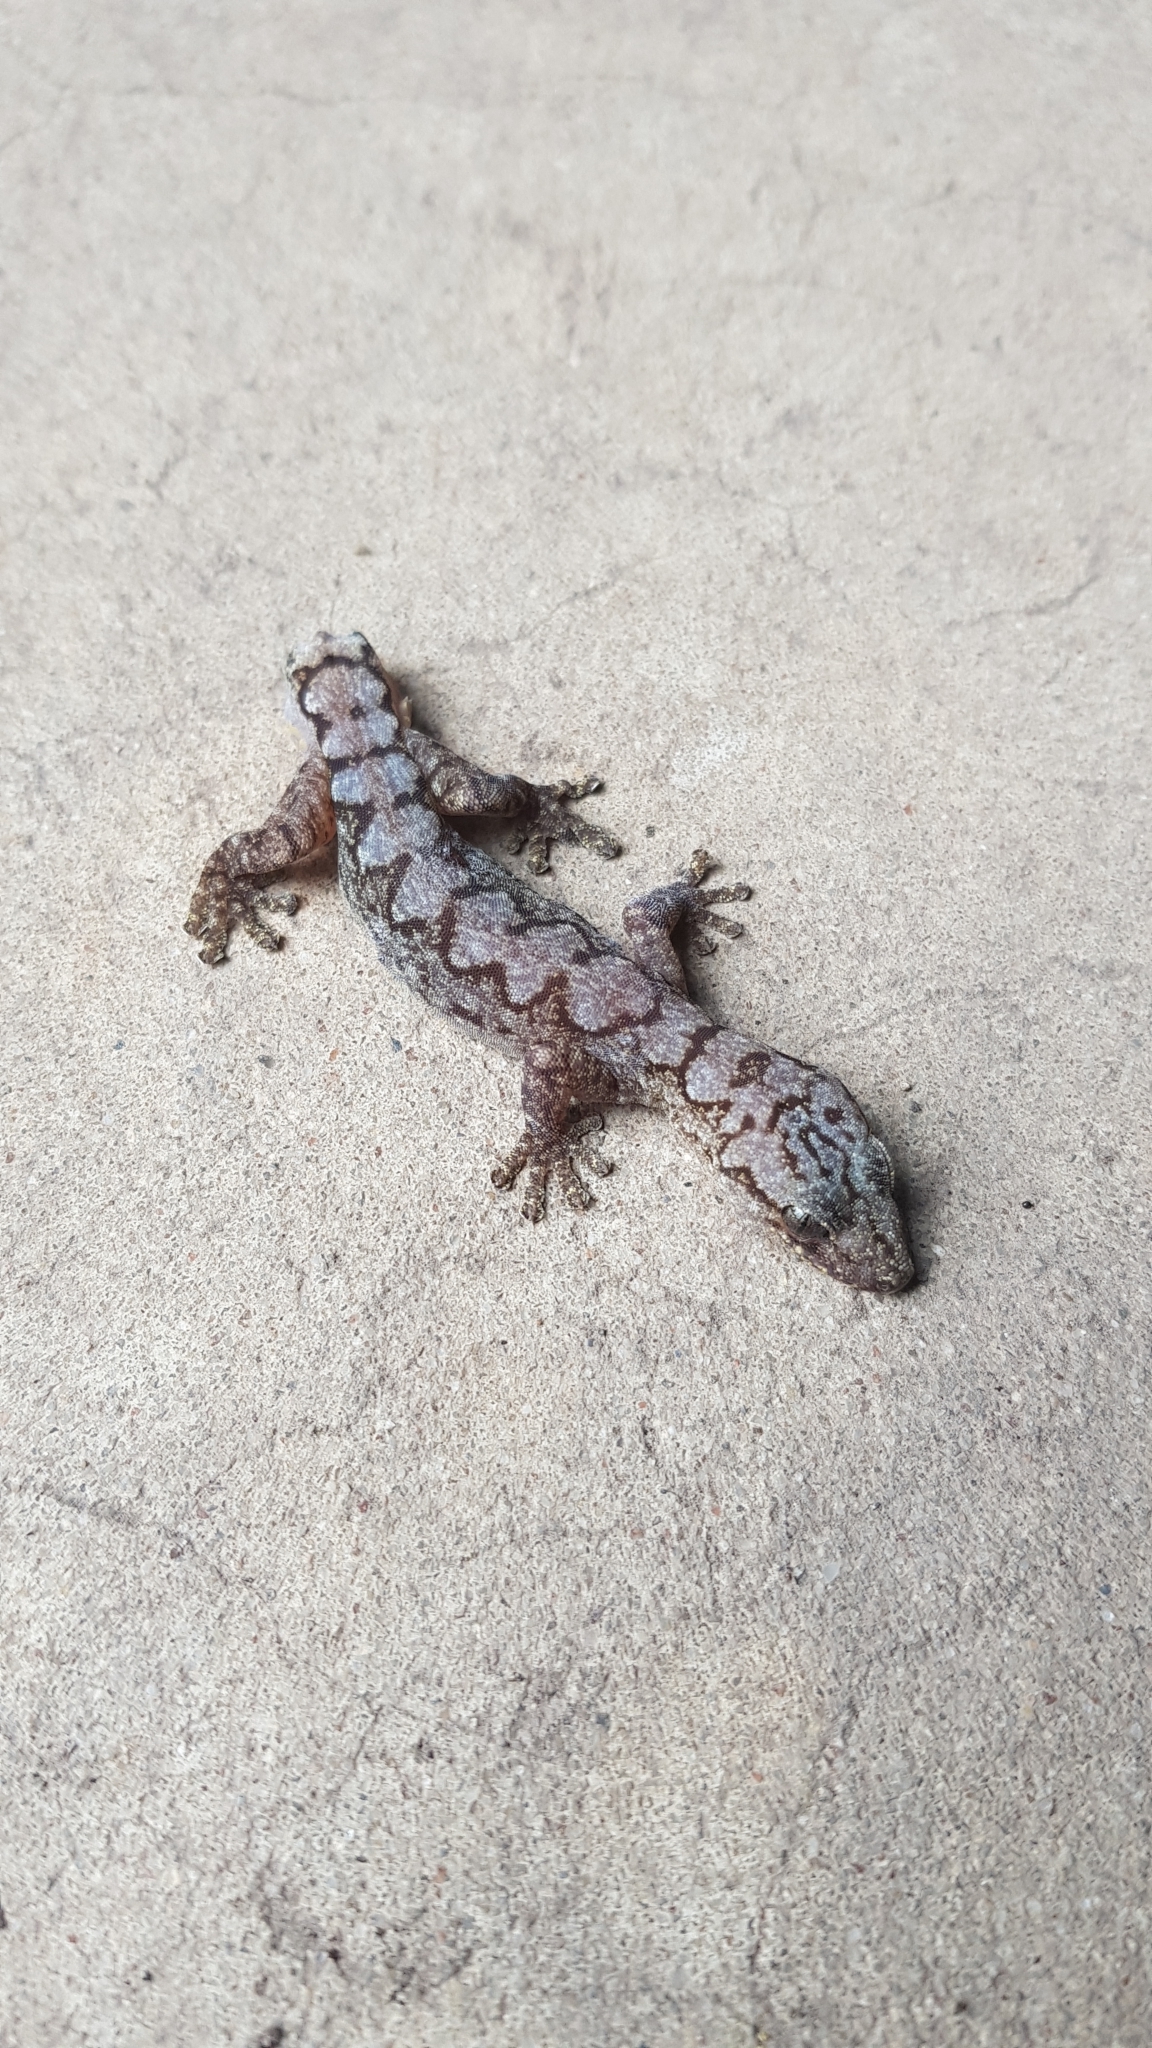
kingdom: Animalia
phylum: Chordata
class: Squamata
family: Diplodactylidae
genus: Amalosia
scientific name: Amalosia lesueurii
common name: Lesueur's gecko
